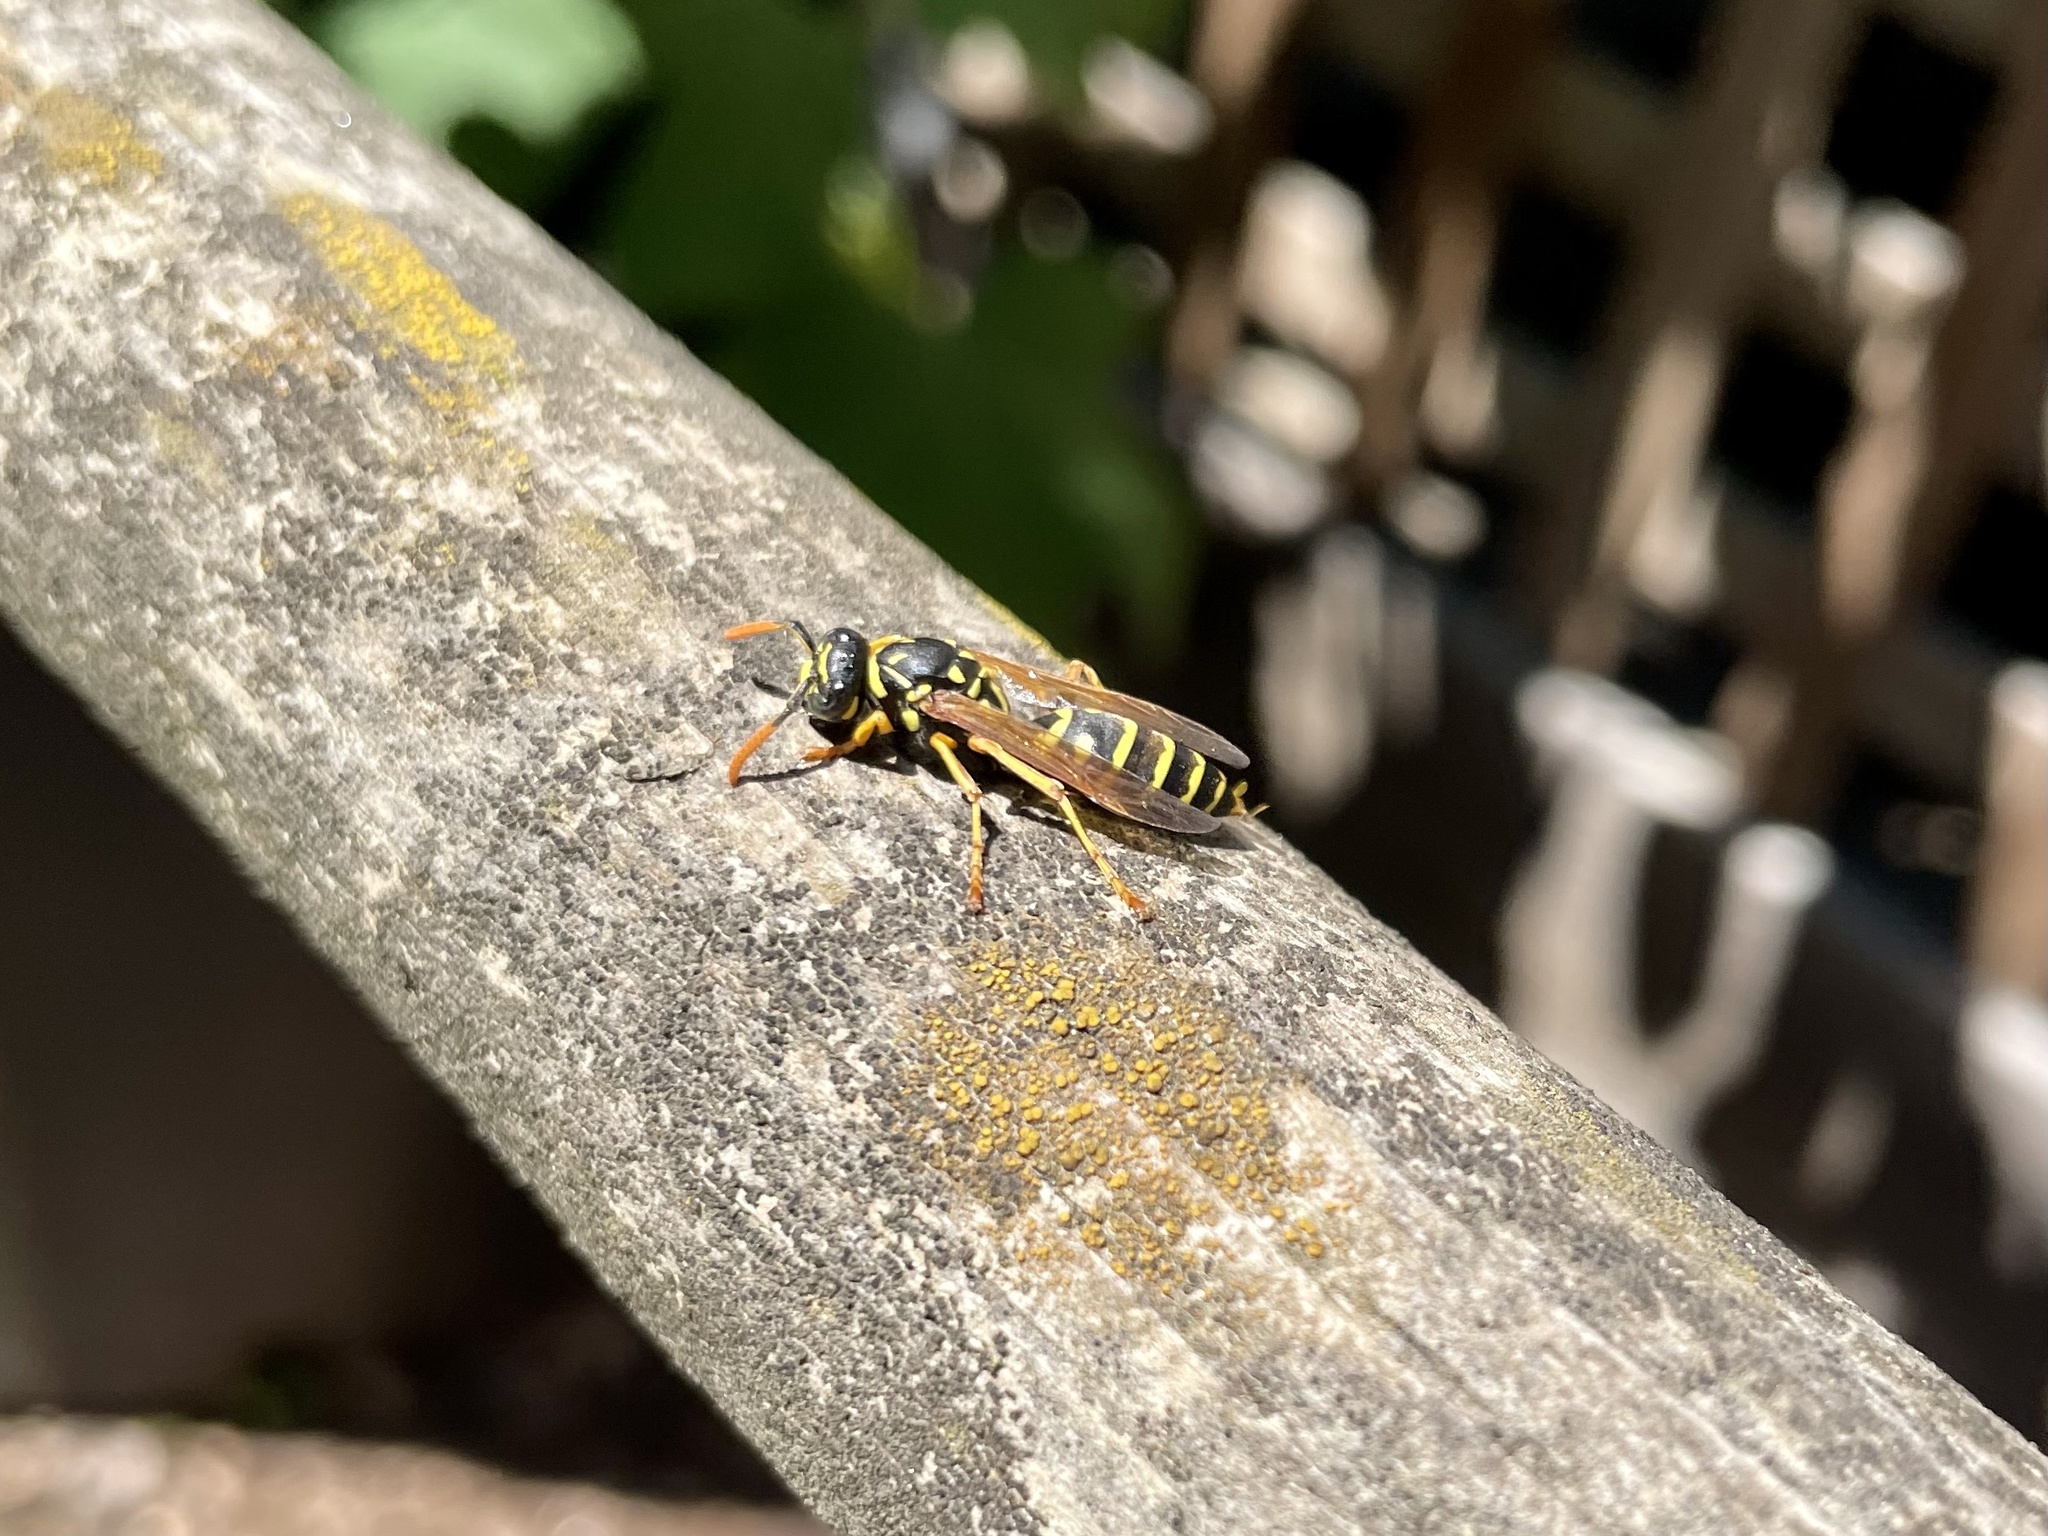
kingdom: Animalia
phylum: Arthropoda
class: Insecta
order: Hymenoptera
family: Eumenidae
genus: Polistes
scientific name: Polistes dominula
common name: Paper wasp
